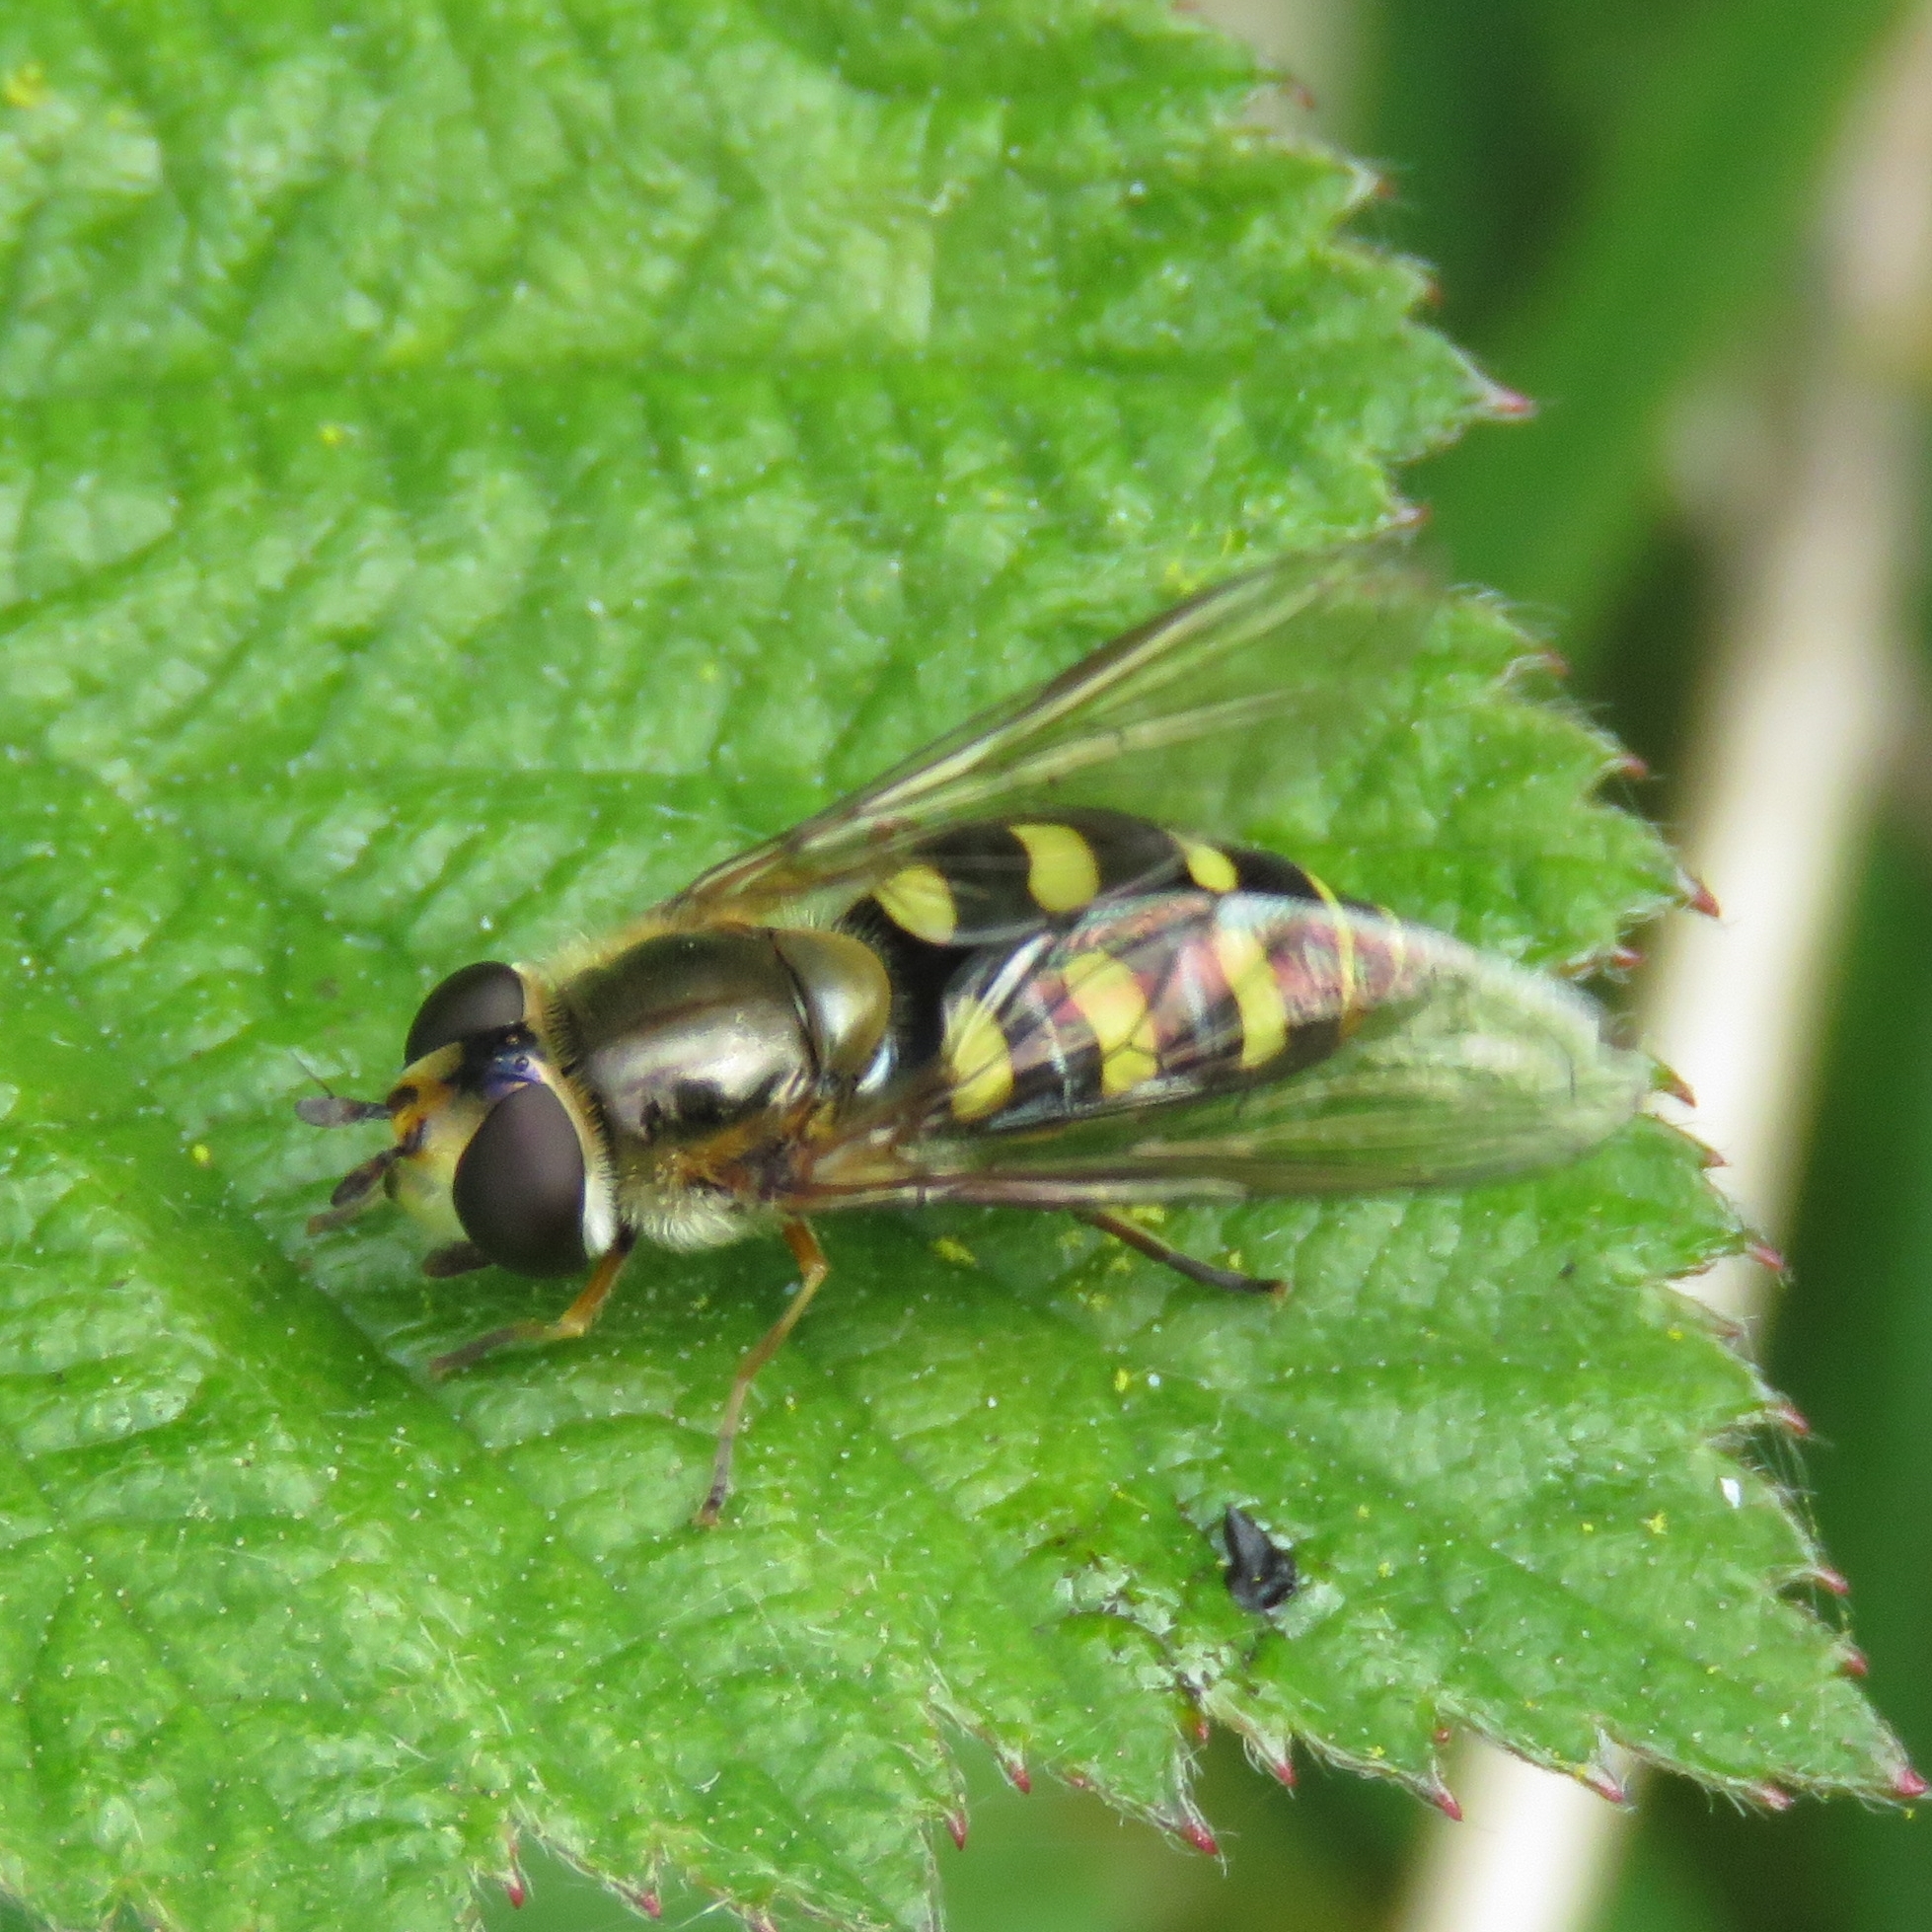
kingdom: Animalia
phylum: Arthropoda
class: Insecta
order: Diptera
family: Syrphidae
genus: Eupeodes
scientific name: Eupeodes luniger
